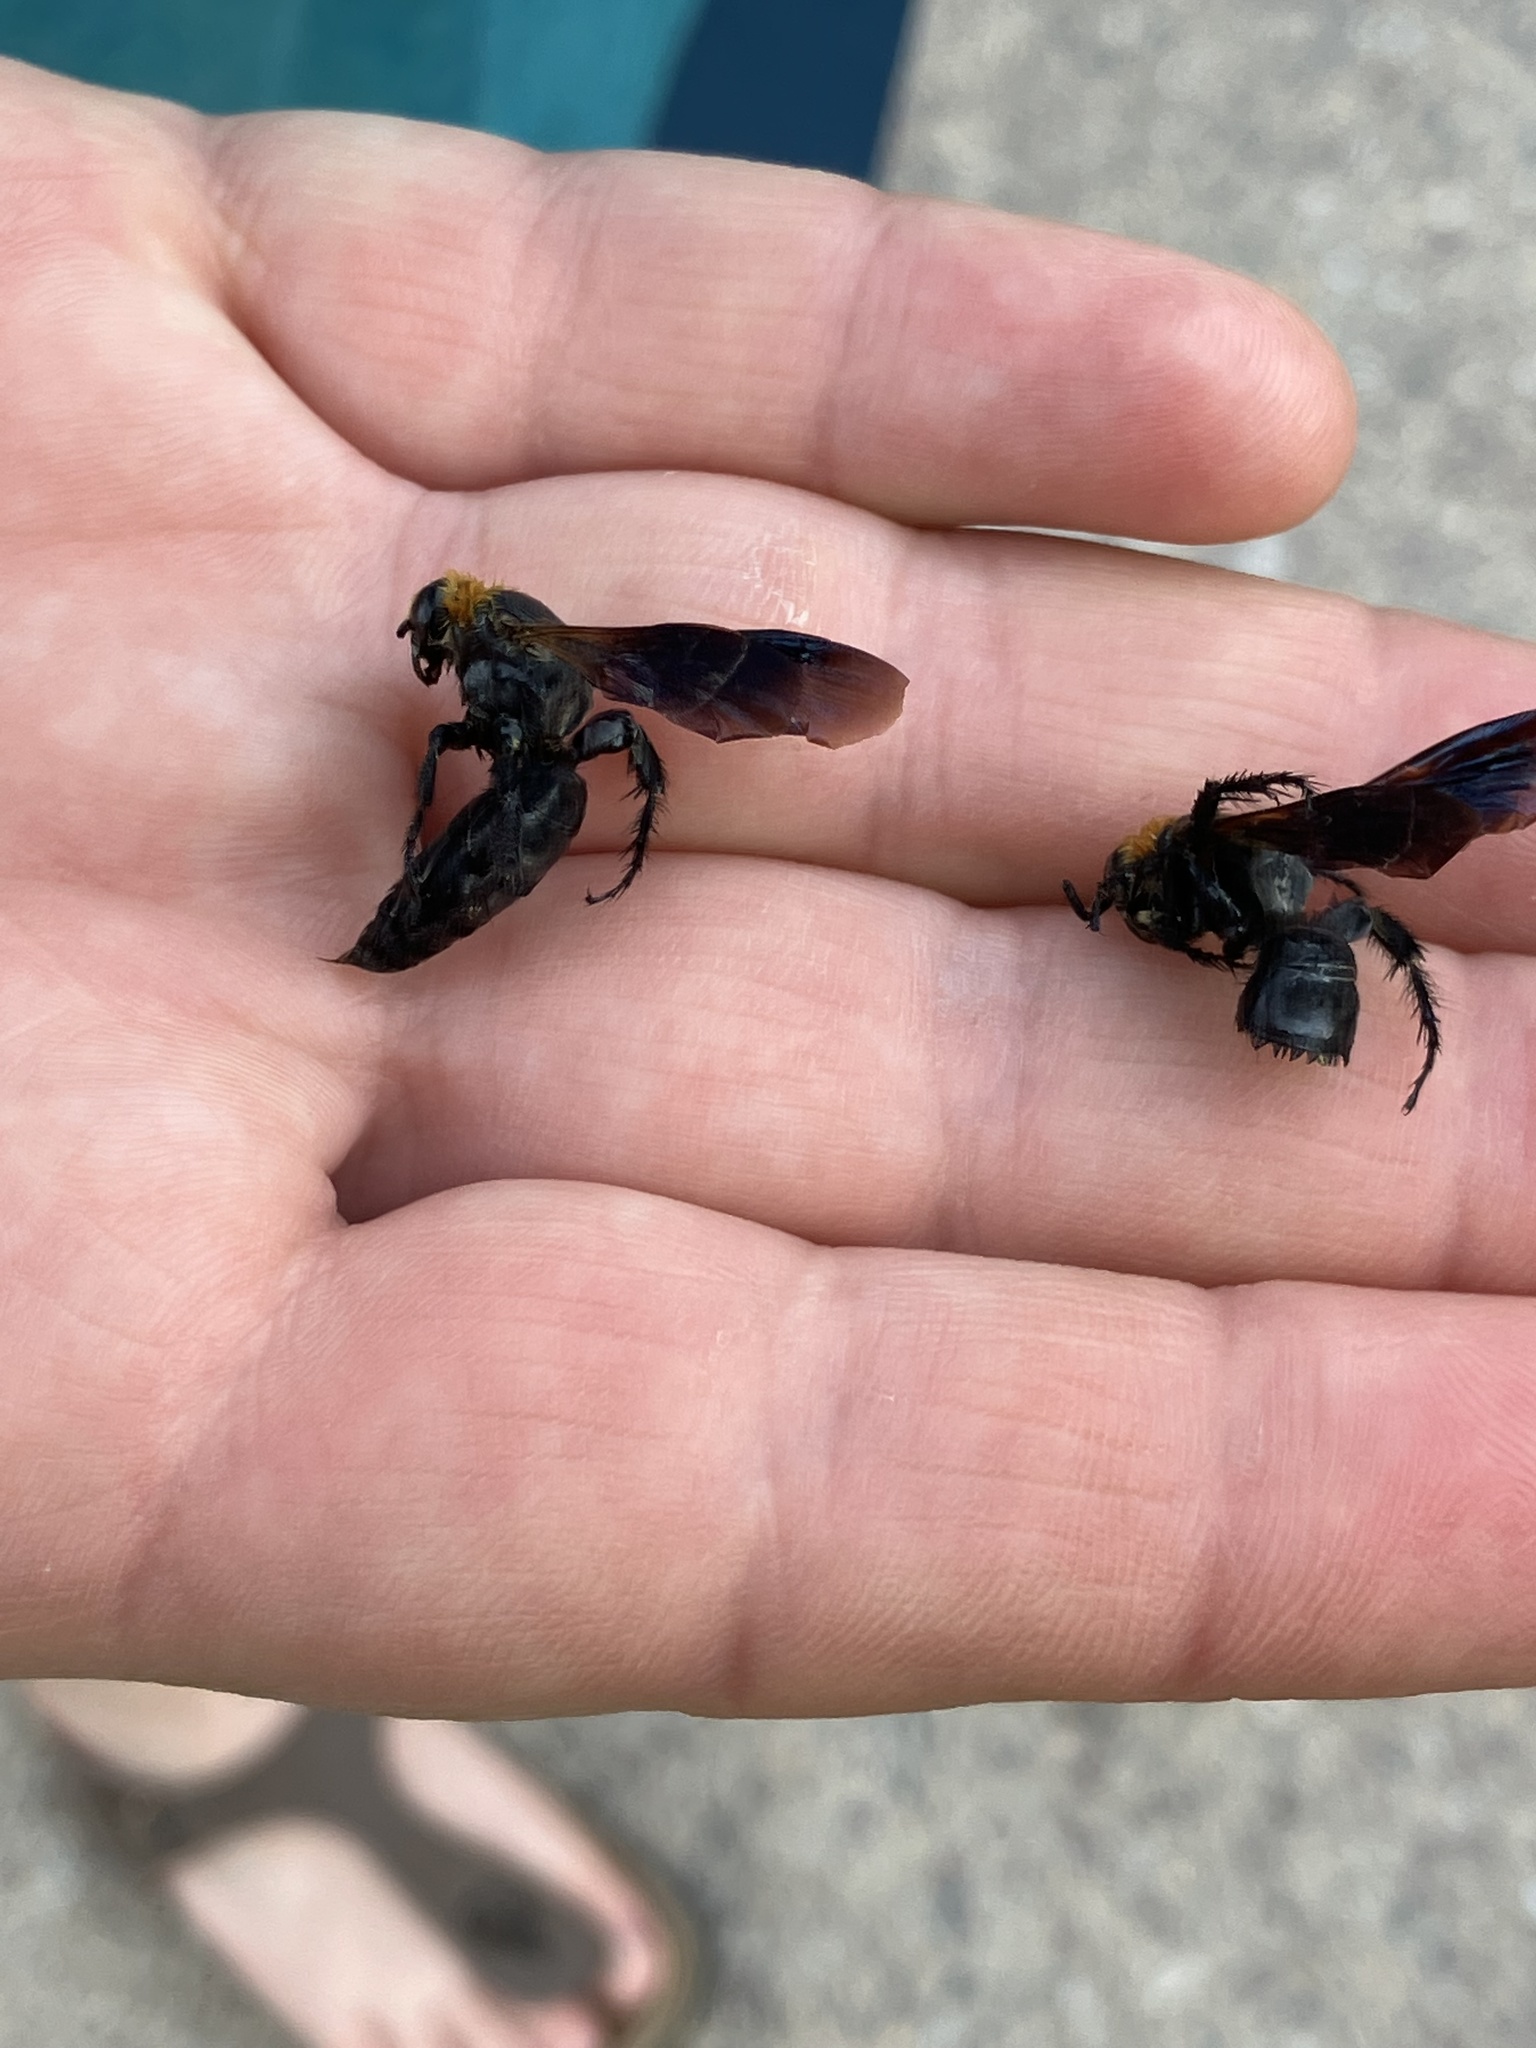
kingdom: Animalia
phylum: Arthropoda
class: Insecta
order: Hymenoptera
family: Scoliidae
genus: Campsomeriella
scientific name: Campsomeriella thoracica
